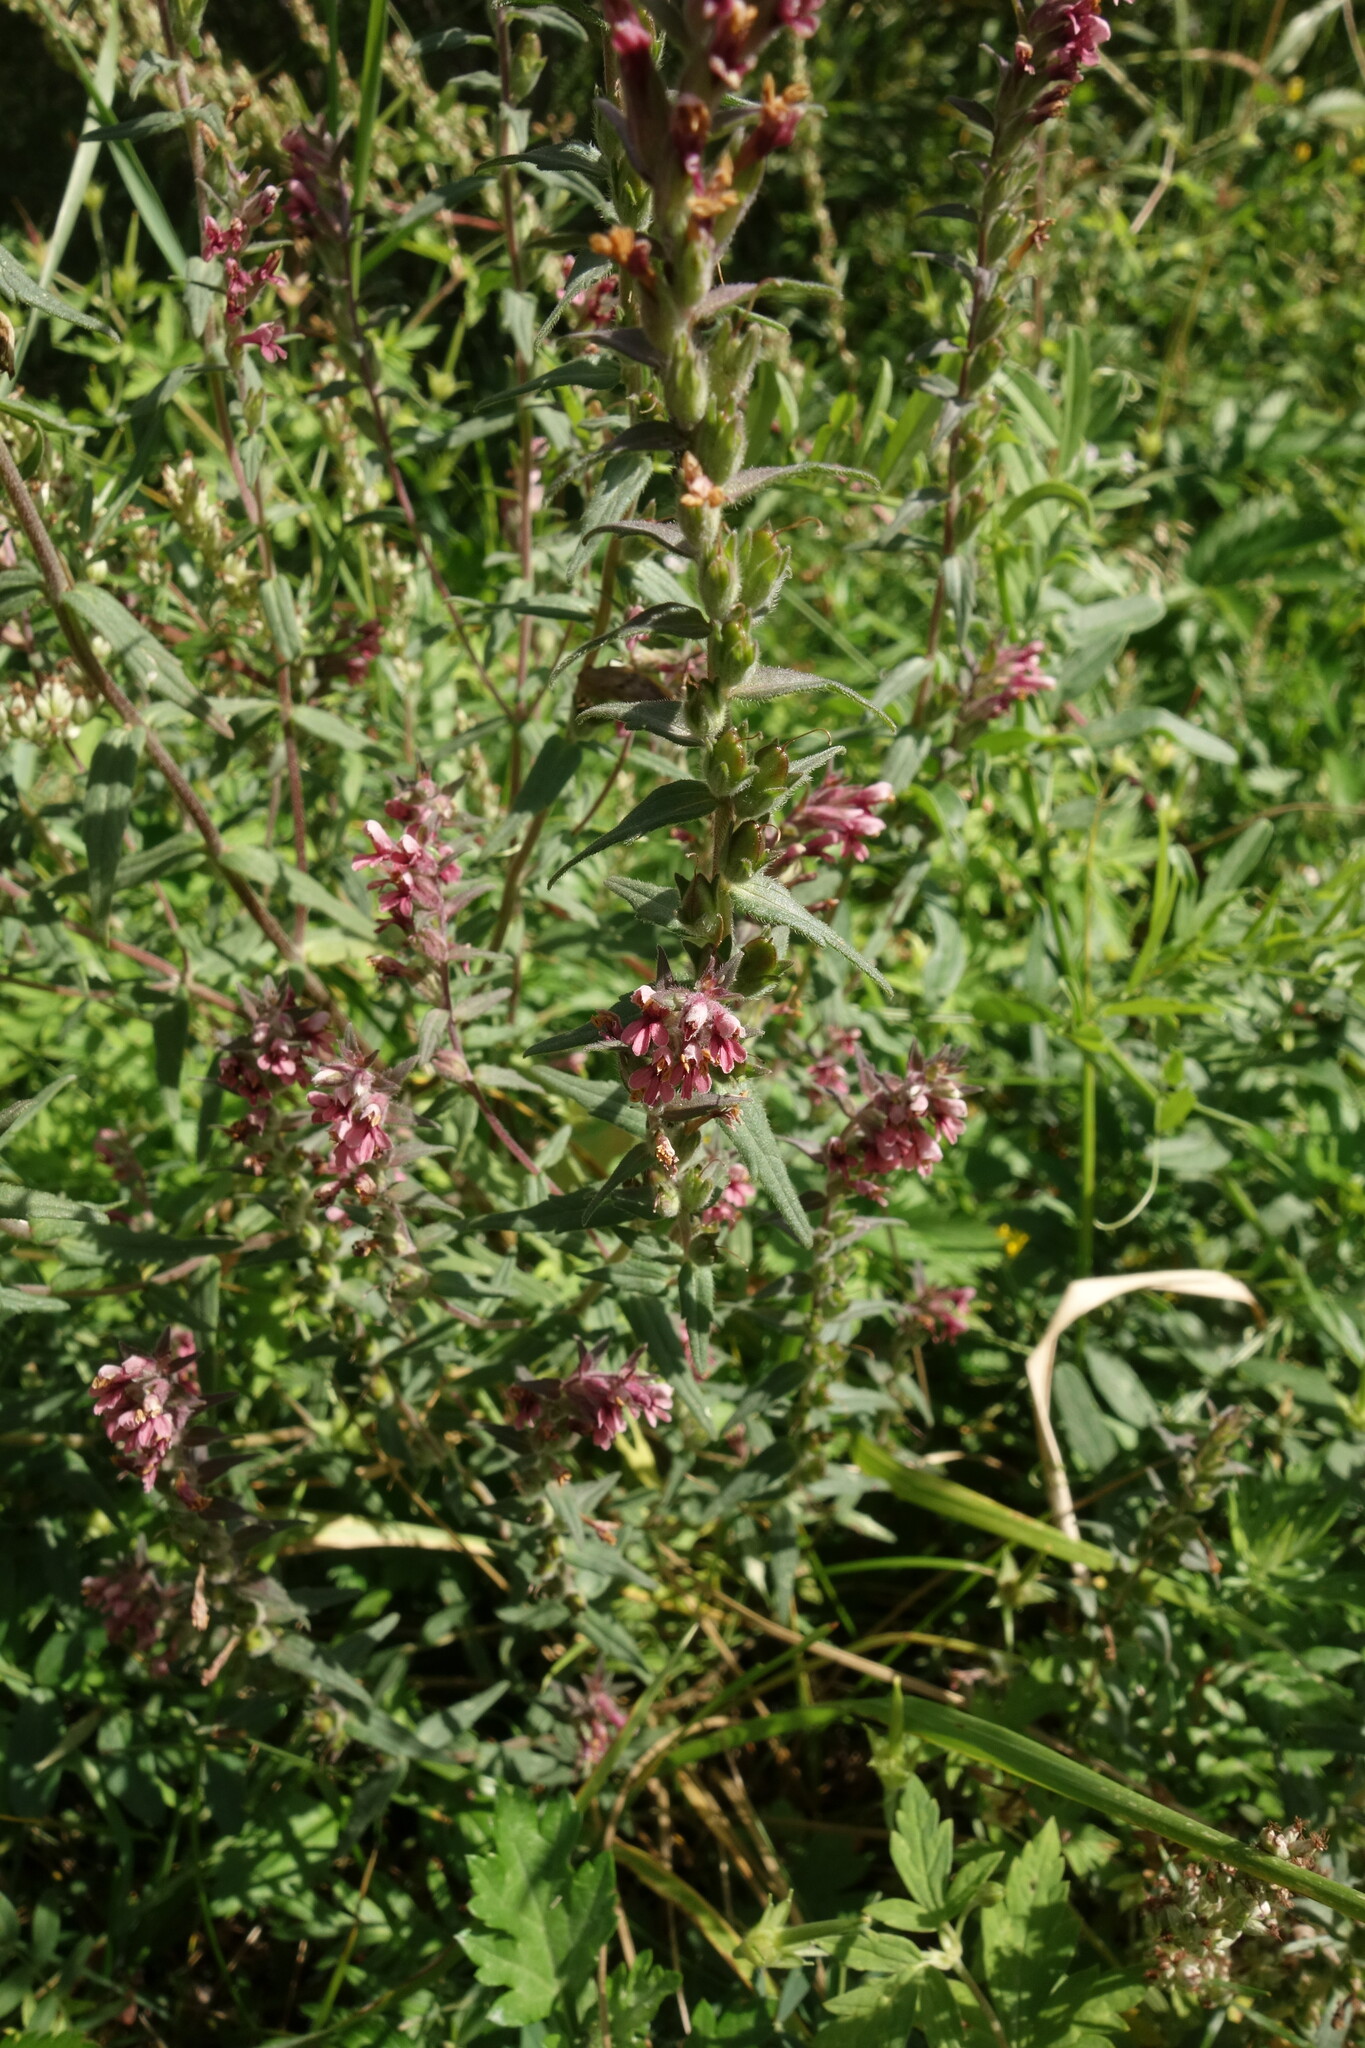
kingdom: Plantae
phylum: Tracheophyta
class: Magnoliopsida
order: Lamiales
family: Orobanchaceae
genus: Odontites
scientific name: Odontites vulgaris
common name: Broomrape
